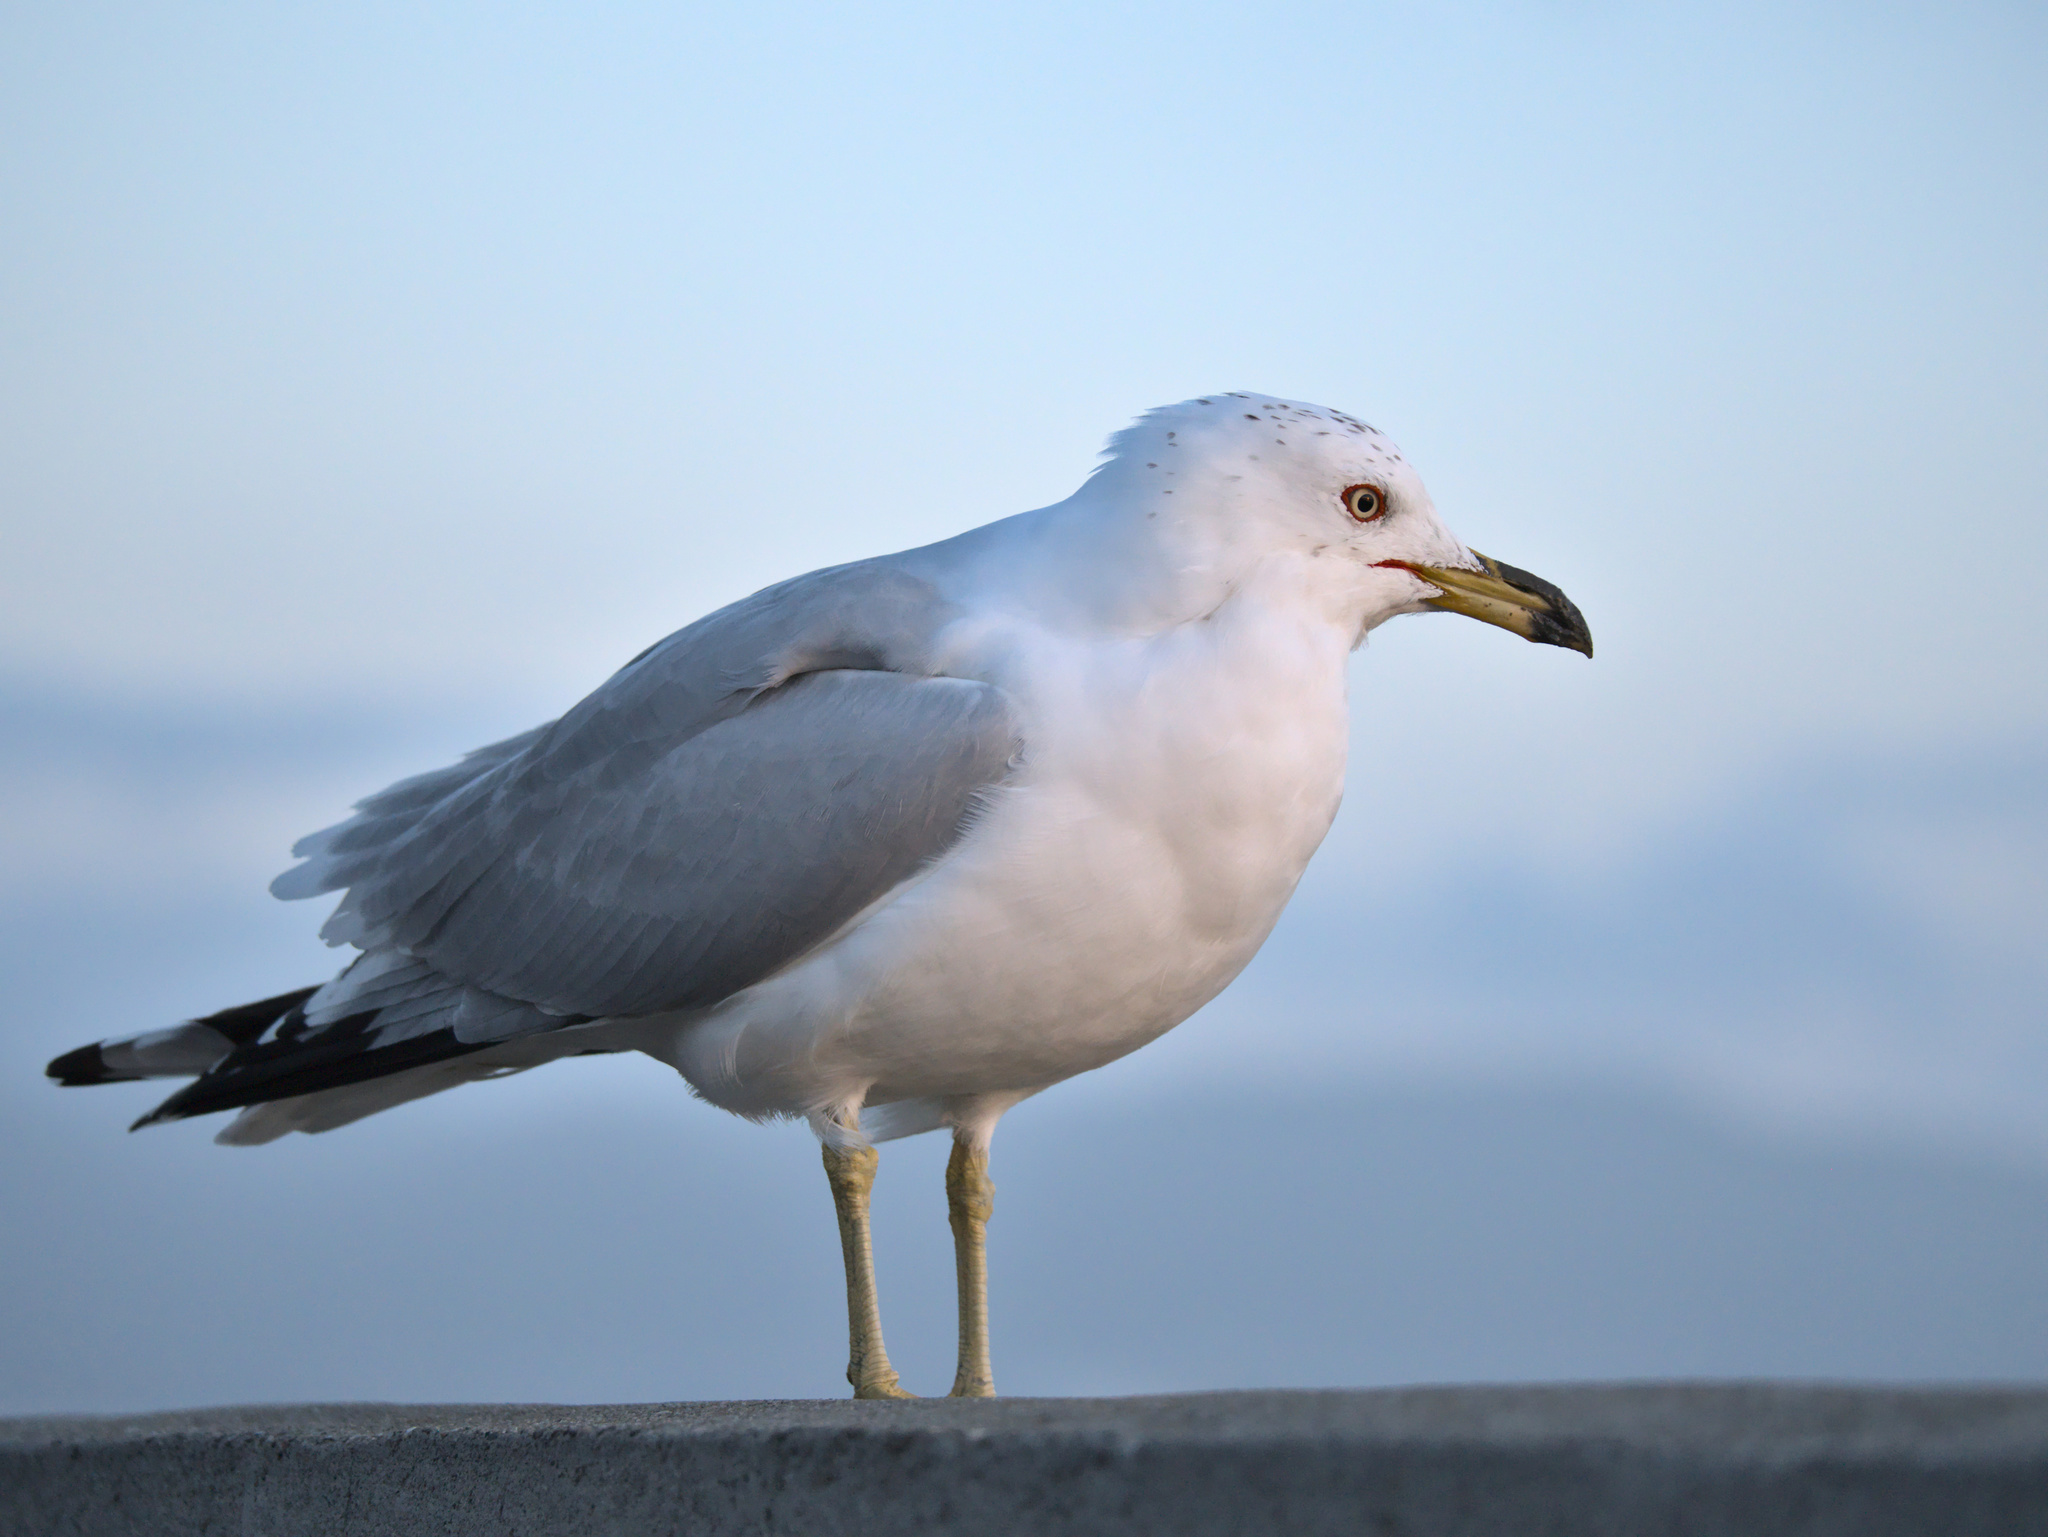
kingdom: Animalia
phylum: Chordata
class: Aves
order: Charadriiformes
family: Laridae
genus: Larus
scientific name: Larus delawarensis
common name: Ring-billed gull
